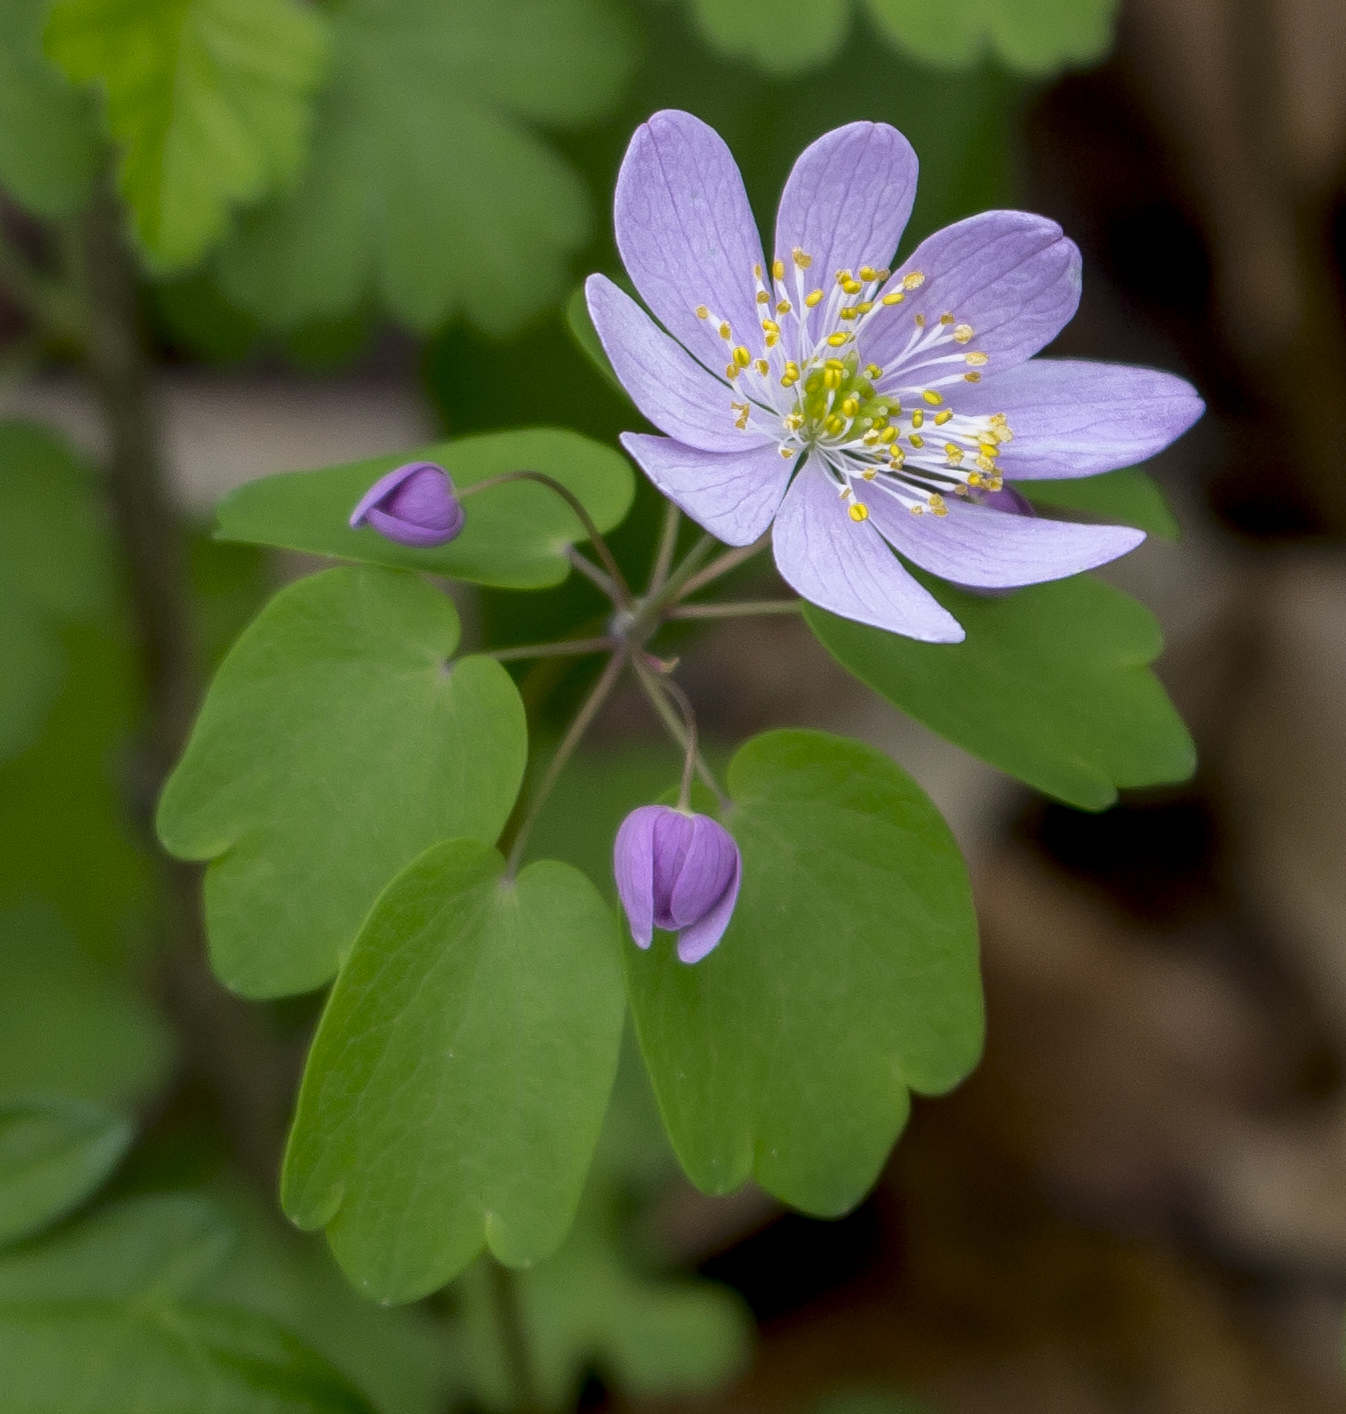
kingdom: Plantae
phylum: Tracheophyta
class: Magnoliopsida
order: Ranunculales
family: Ranunculaceae
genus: Thalictrum
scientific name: Thalictrum thalictroides
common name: Rue-anemone
